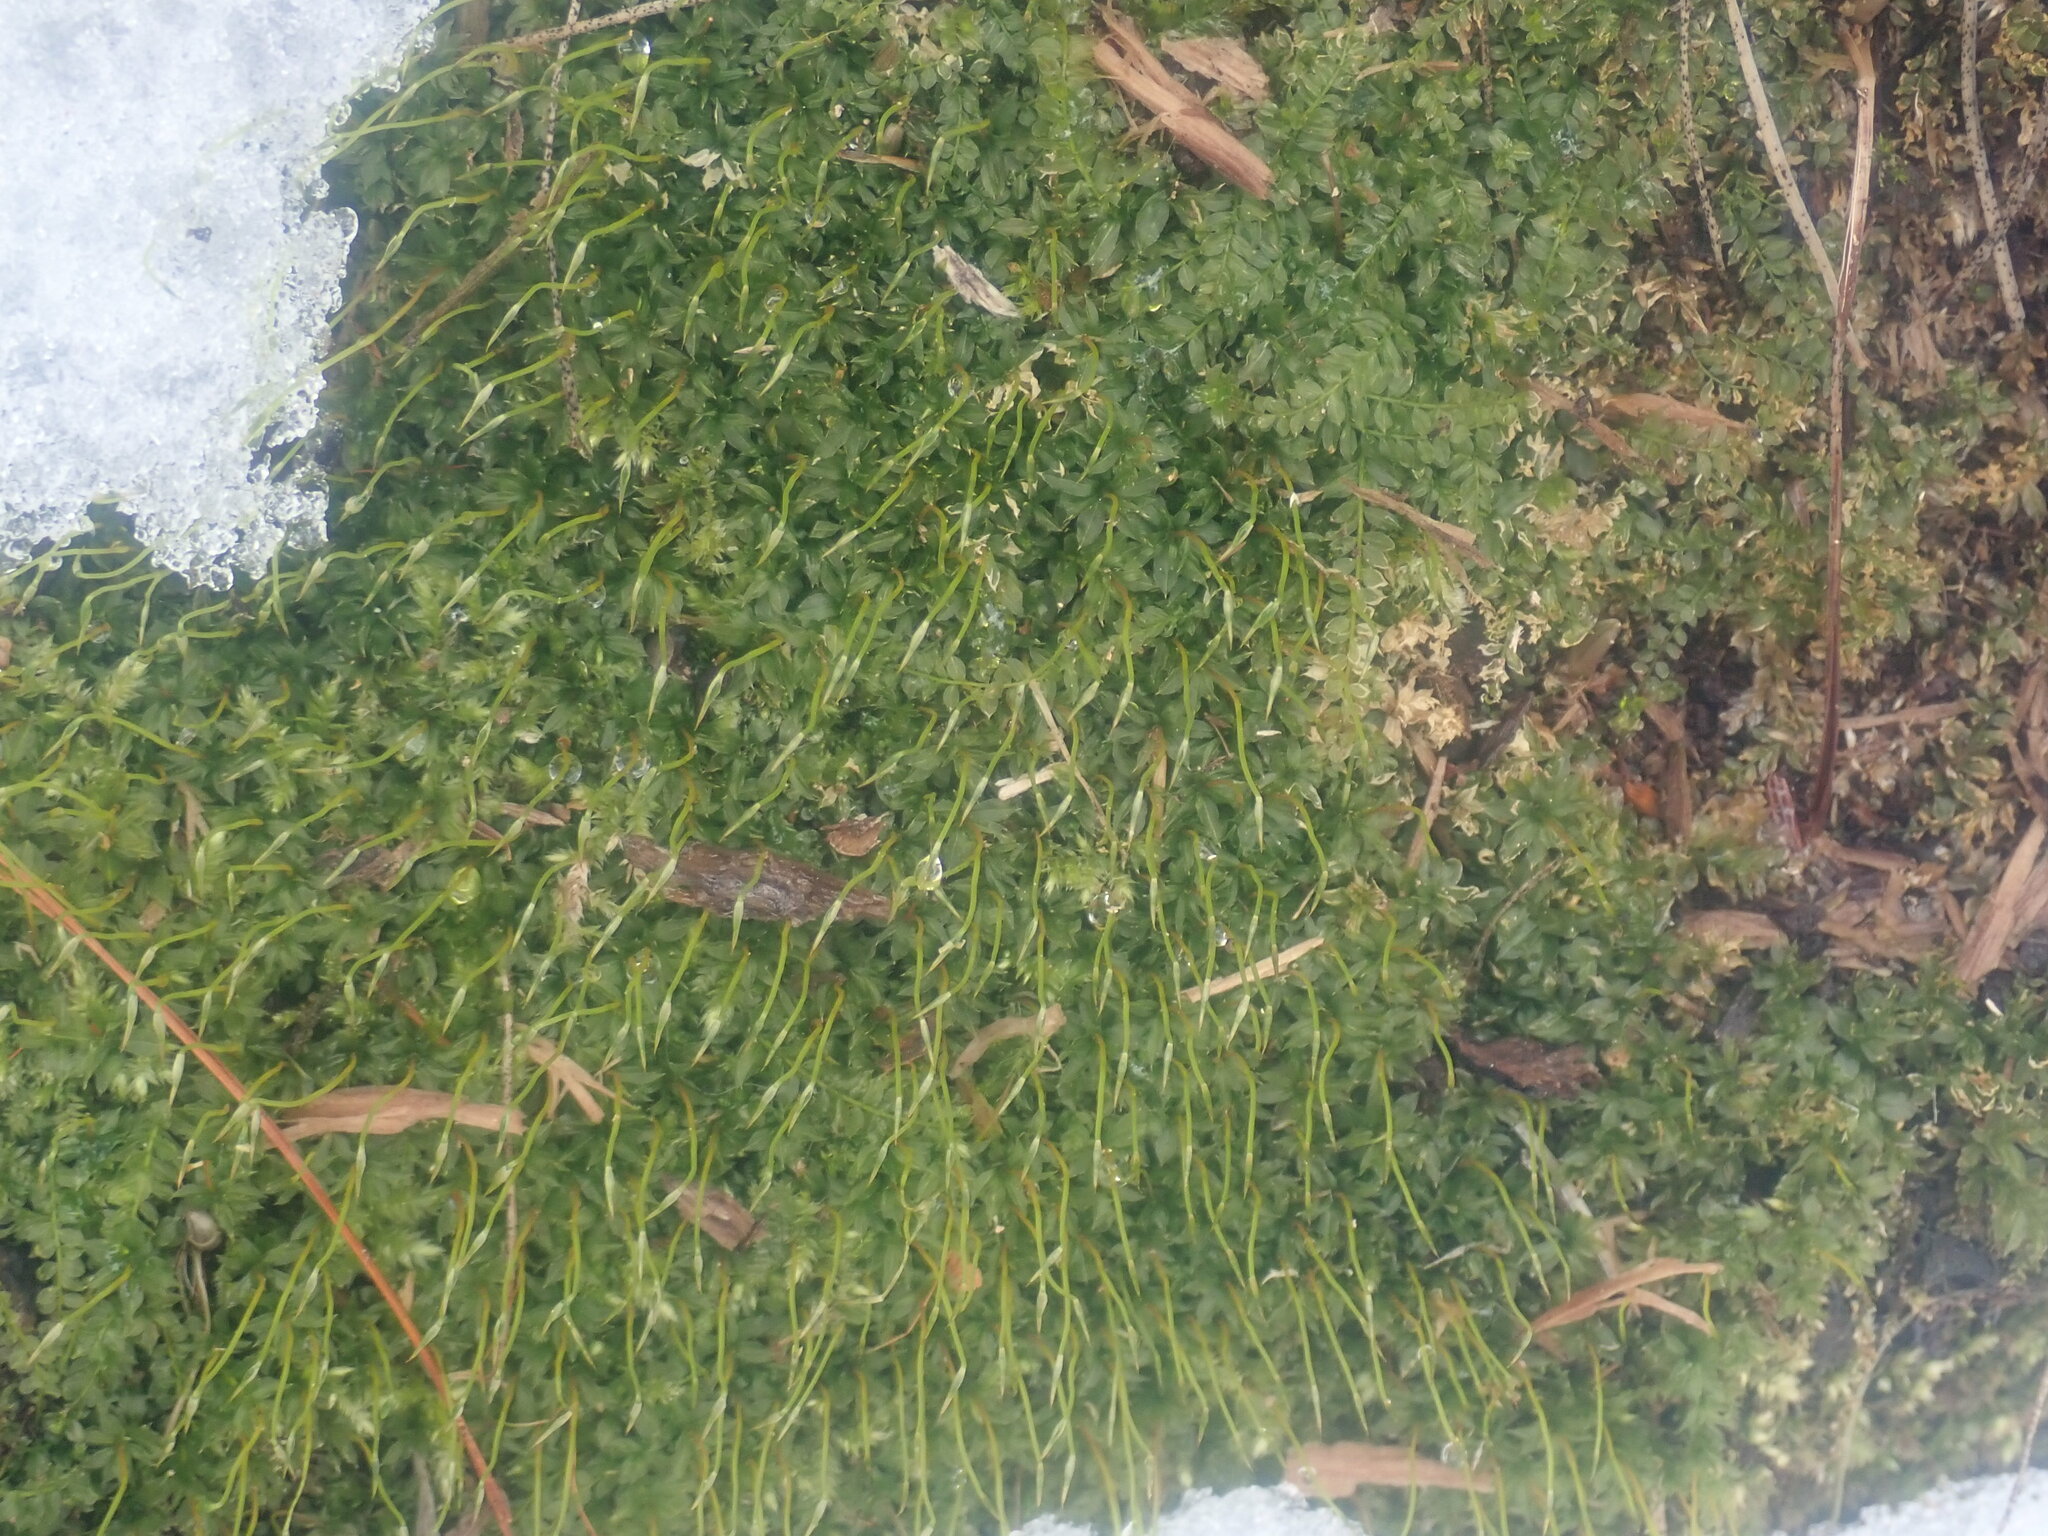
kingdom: Plantae
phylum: Bryophyta
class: Bryopsida
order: Bryales
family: Mniaceae
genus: Plagiomnium
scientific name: Plagiomnium cuspidatum
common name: Woodsy leafy moss
